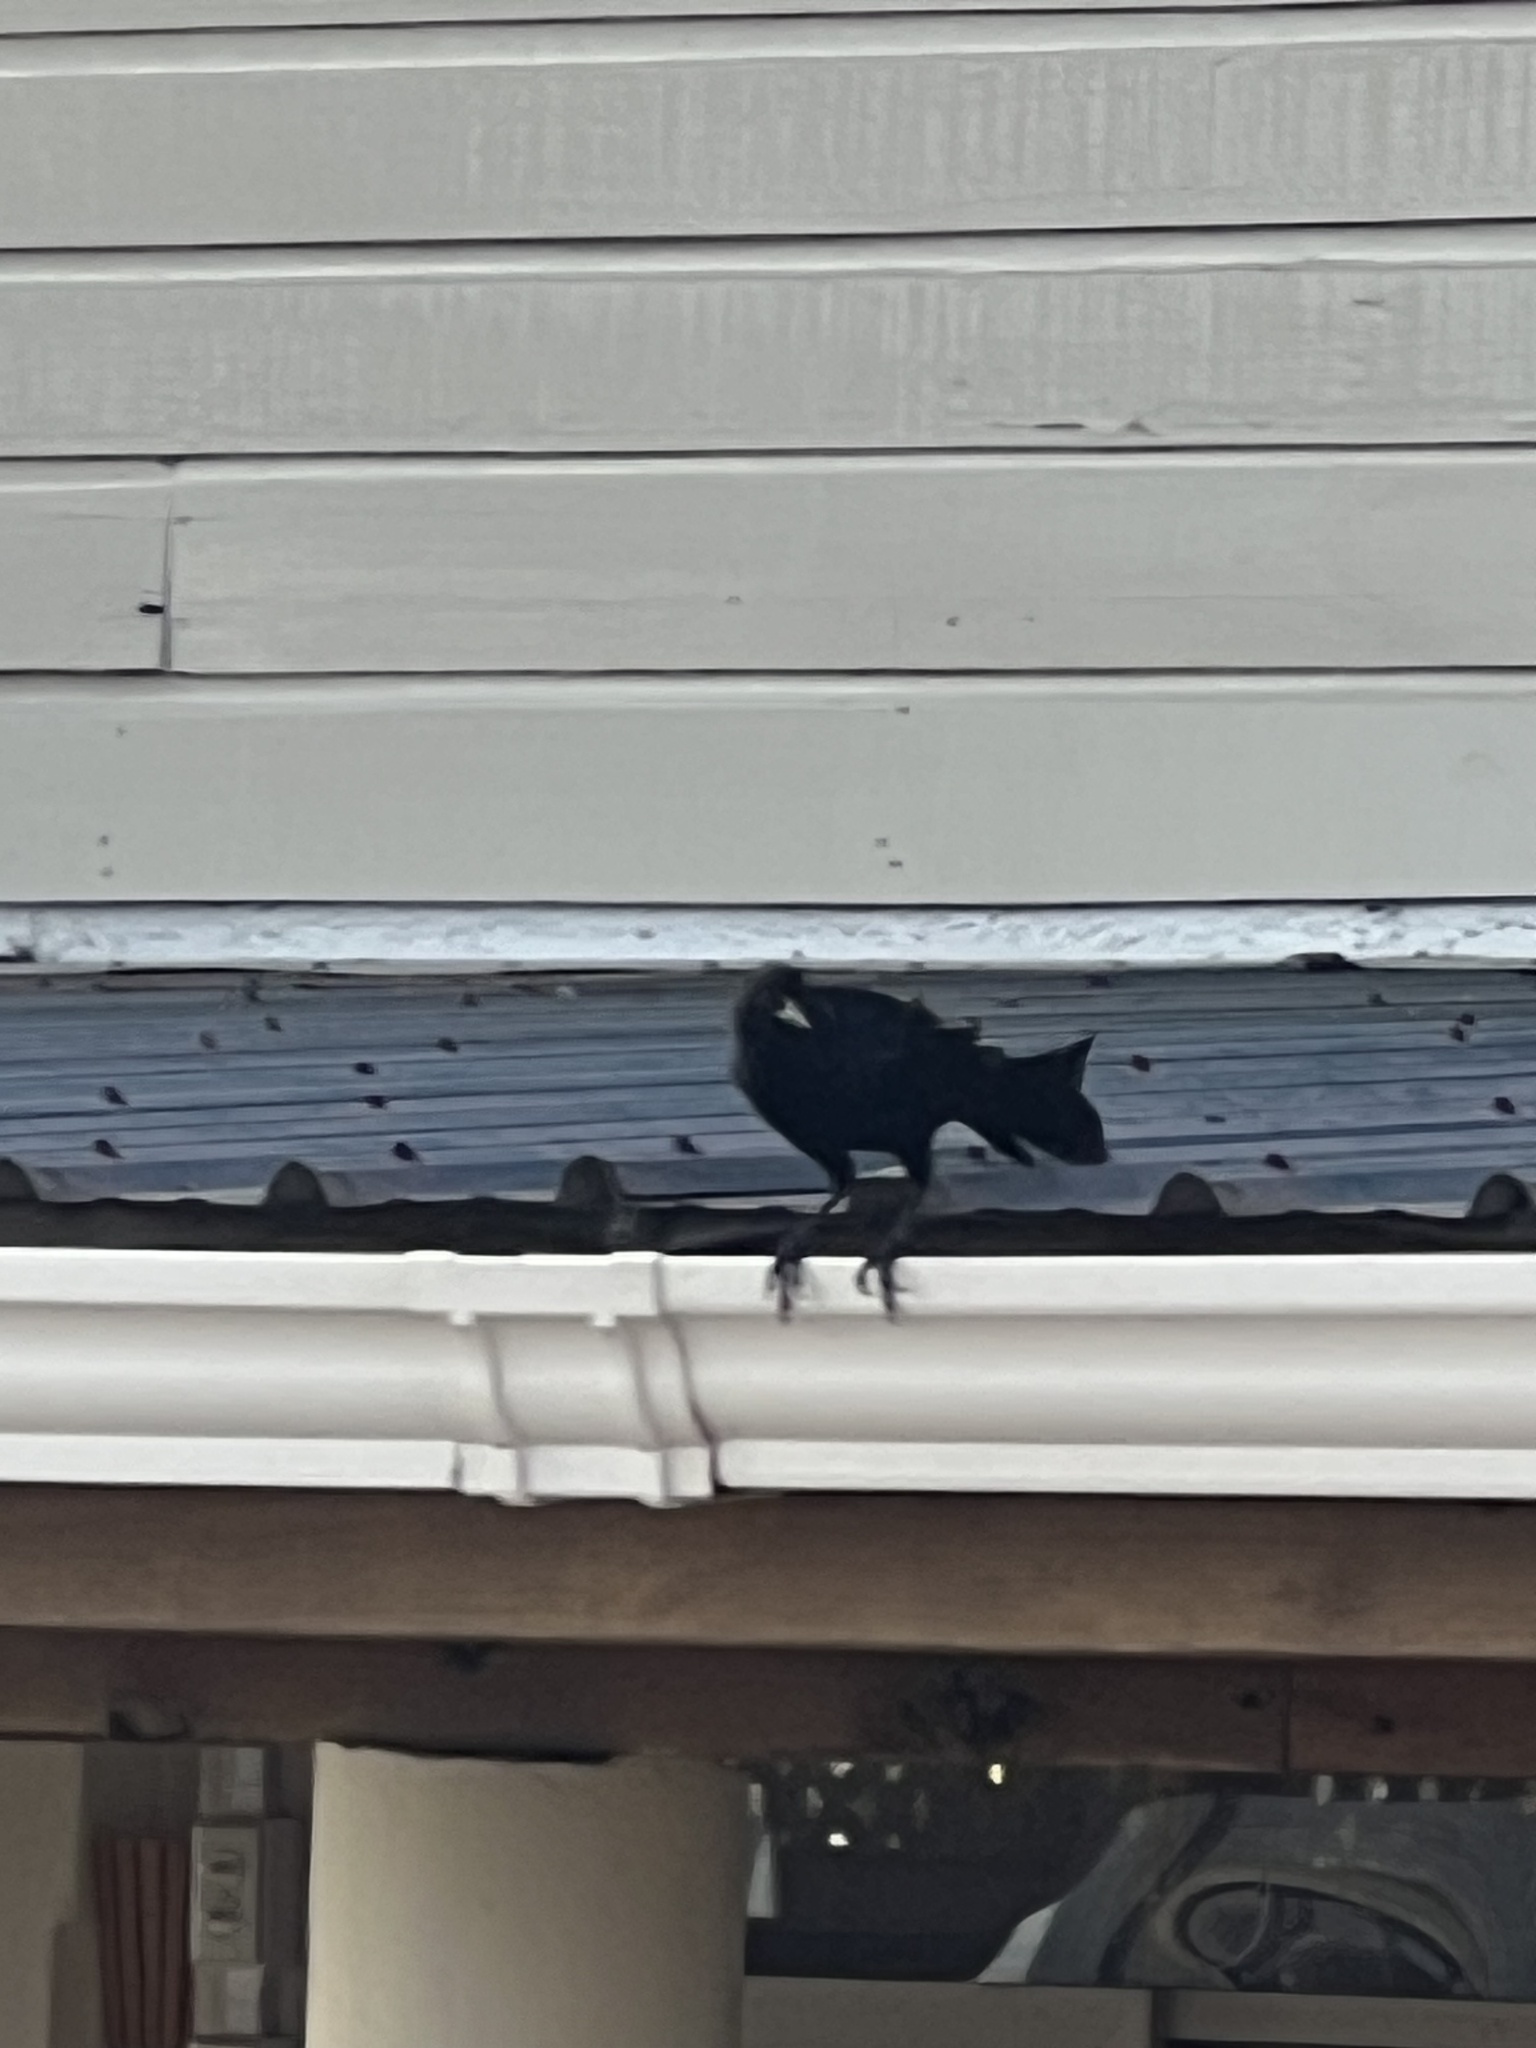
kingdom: Animalia
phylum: Chordata
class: Aves
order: Passeriformes
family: Icteridae
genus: Quiscalus
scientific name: Quiscalus mexicanus
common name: Great-tailed grackle
